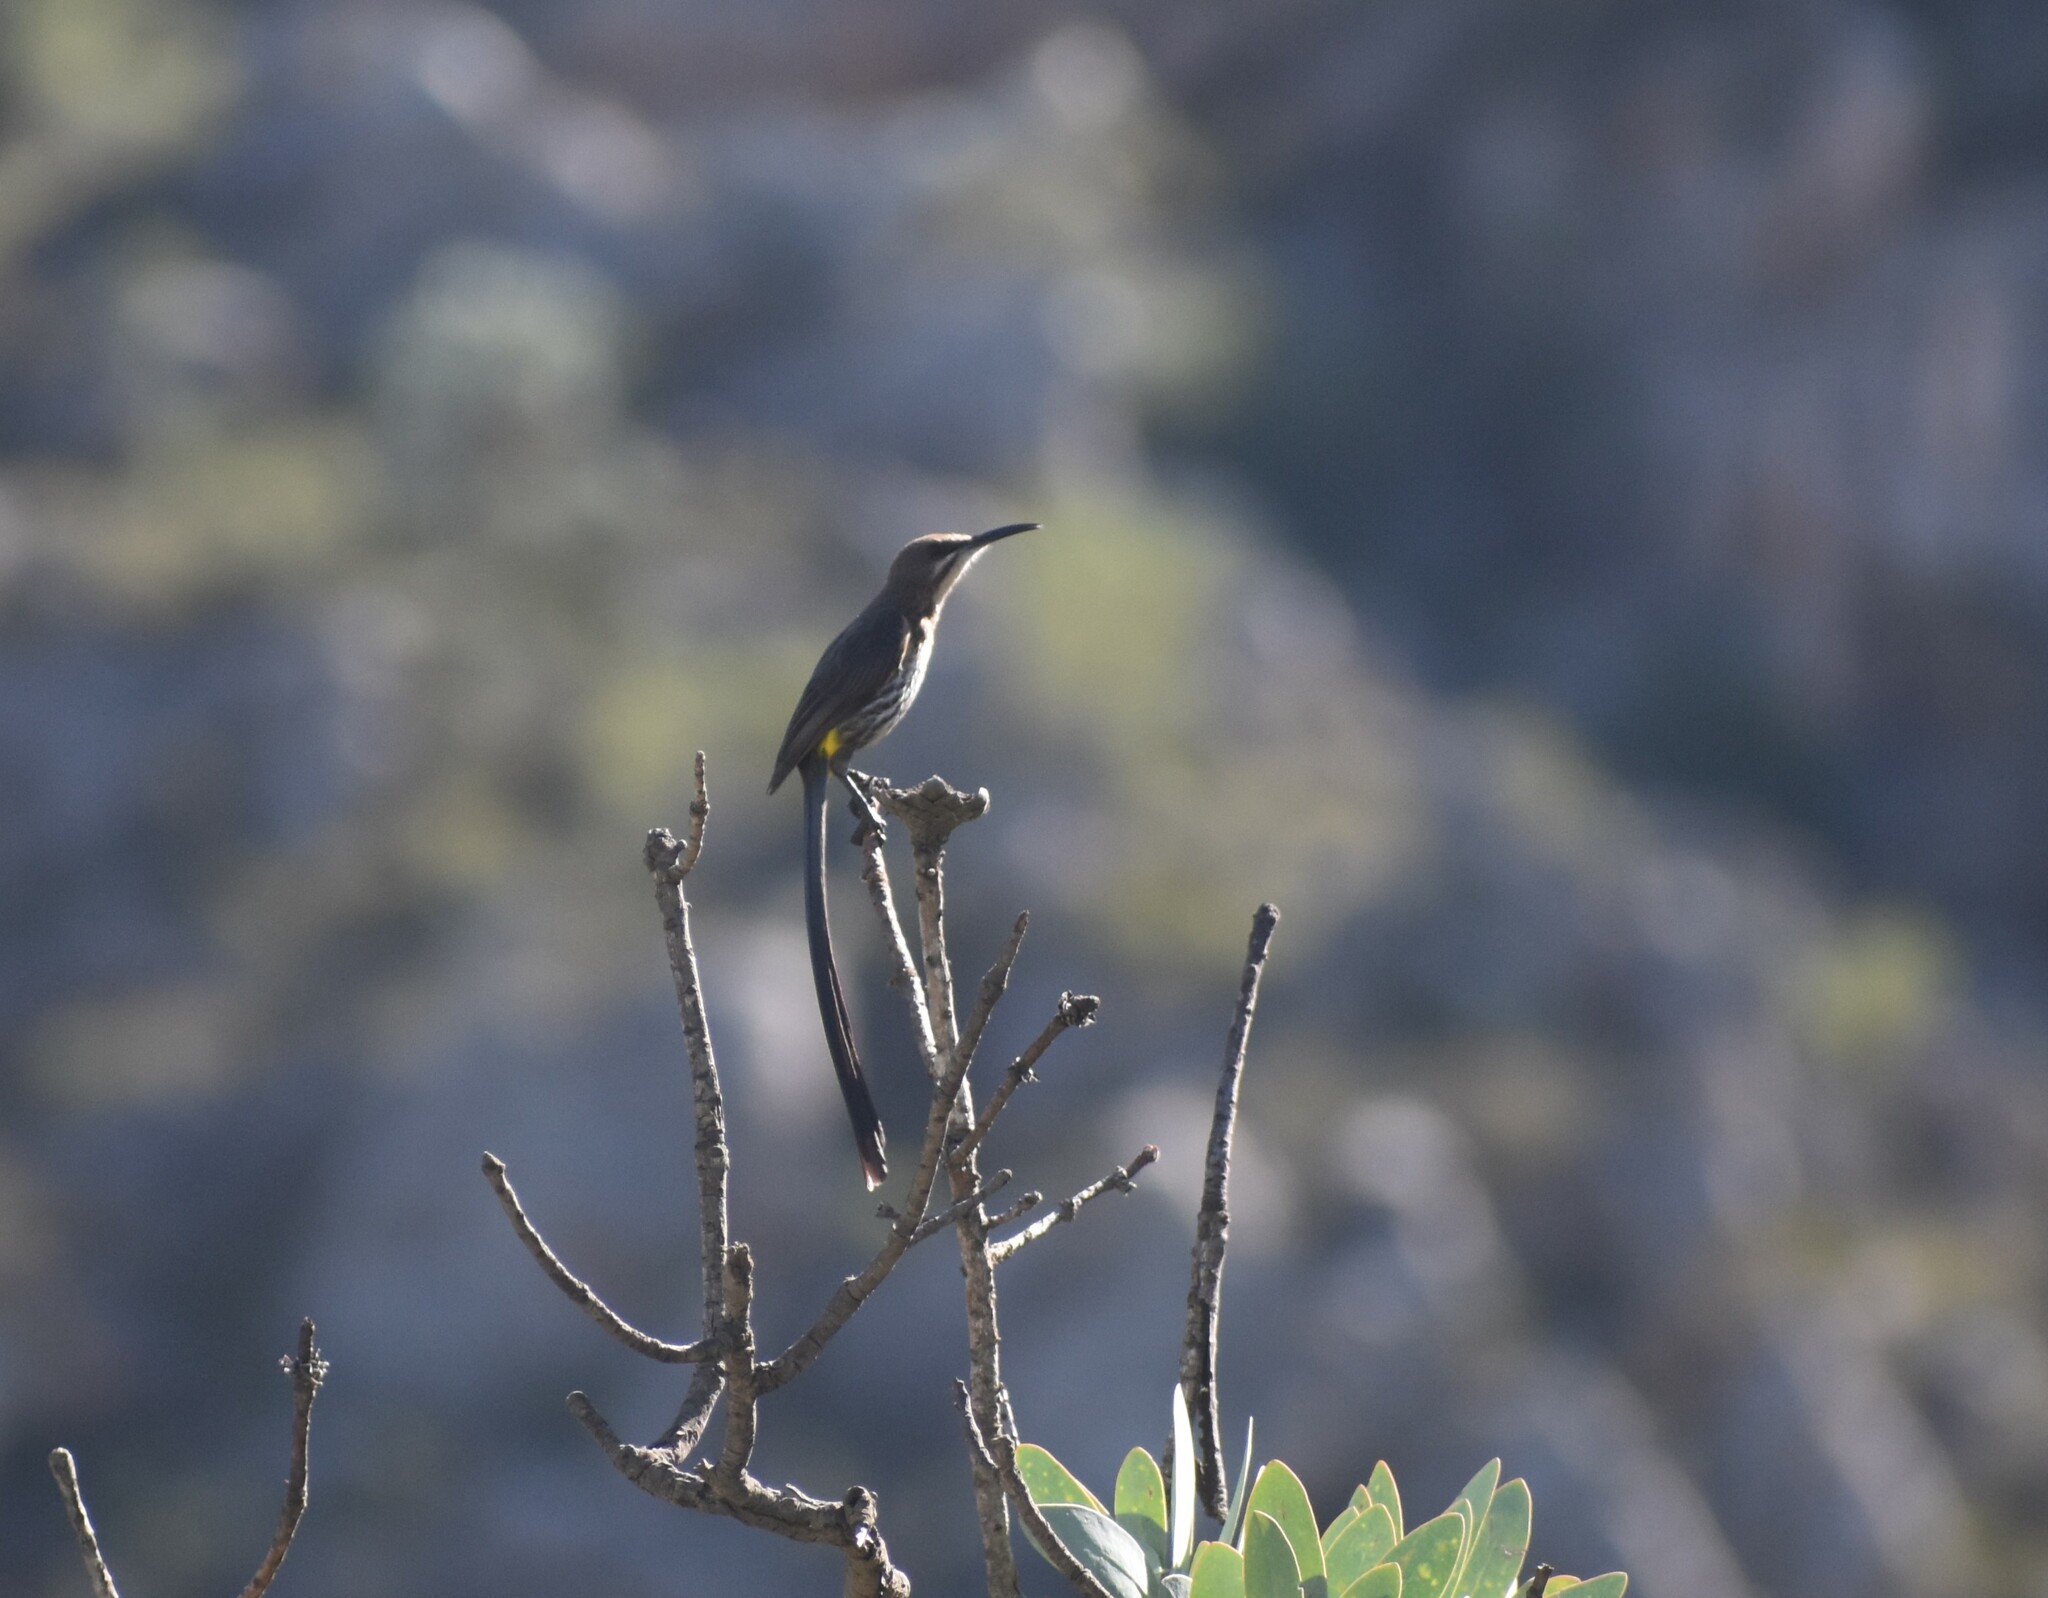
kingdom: Animalia
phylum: Chordata
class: Aves
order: Passeriformes
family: Promeropidae
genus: Promerops
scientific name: Promerops cafer
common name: Cape sugarbird
